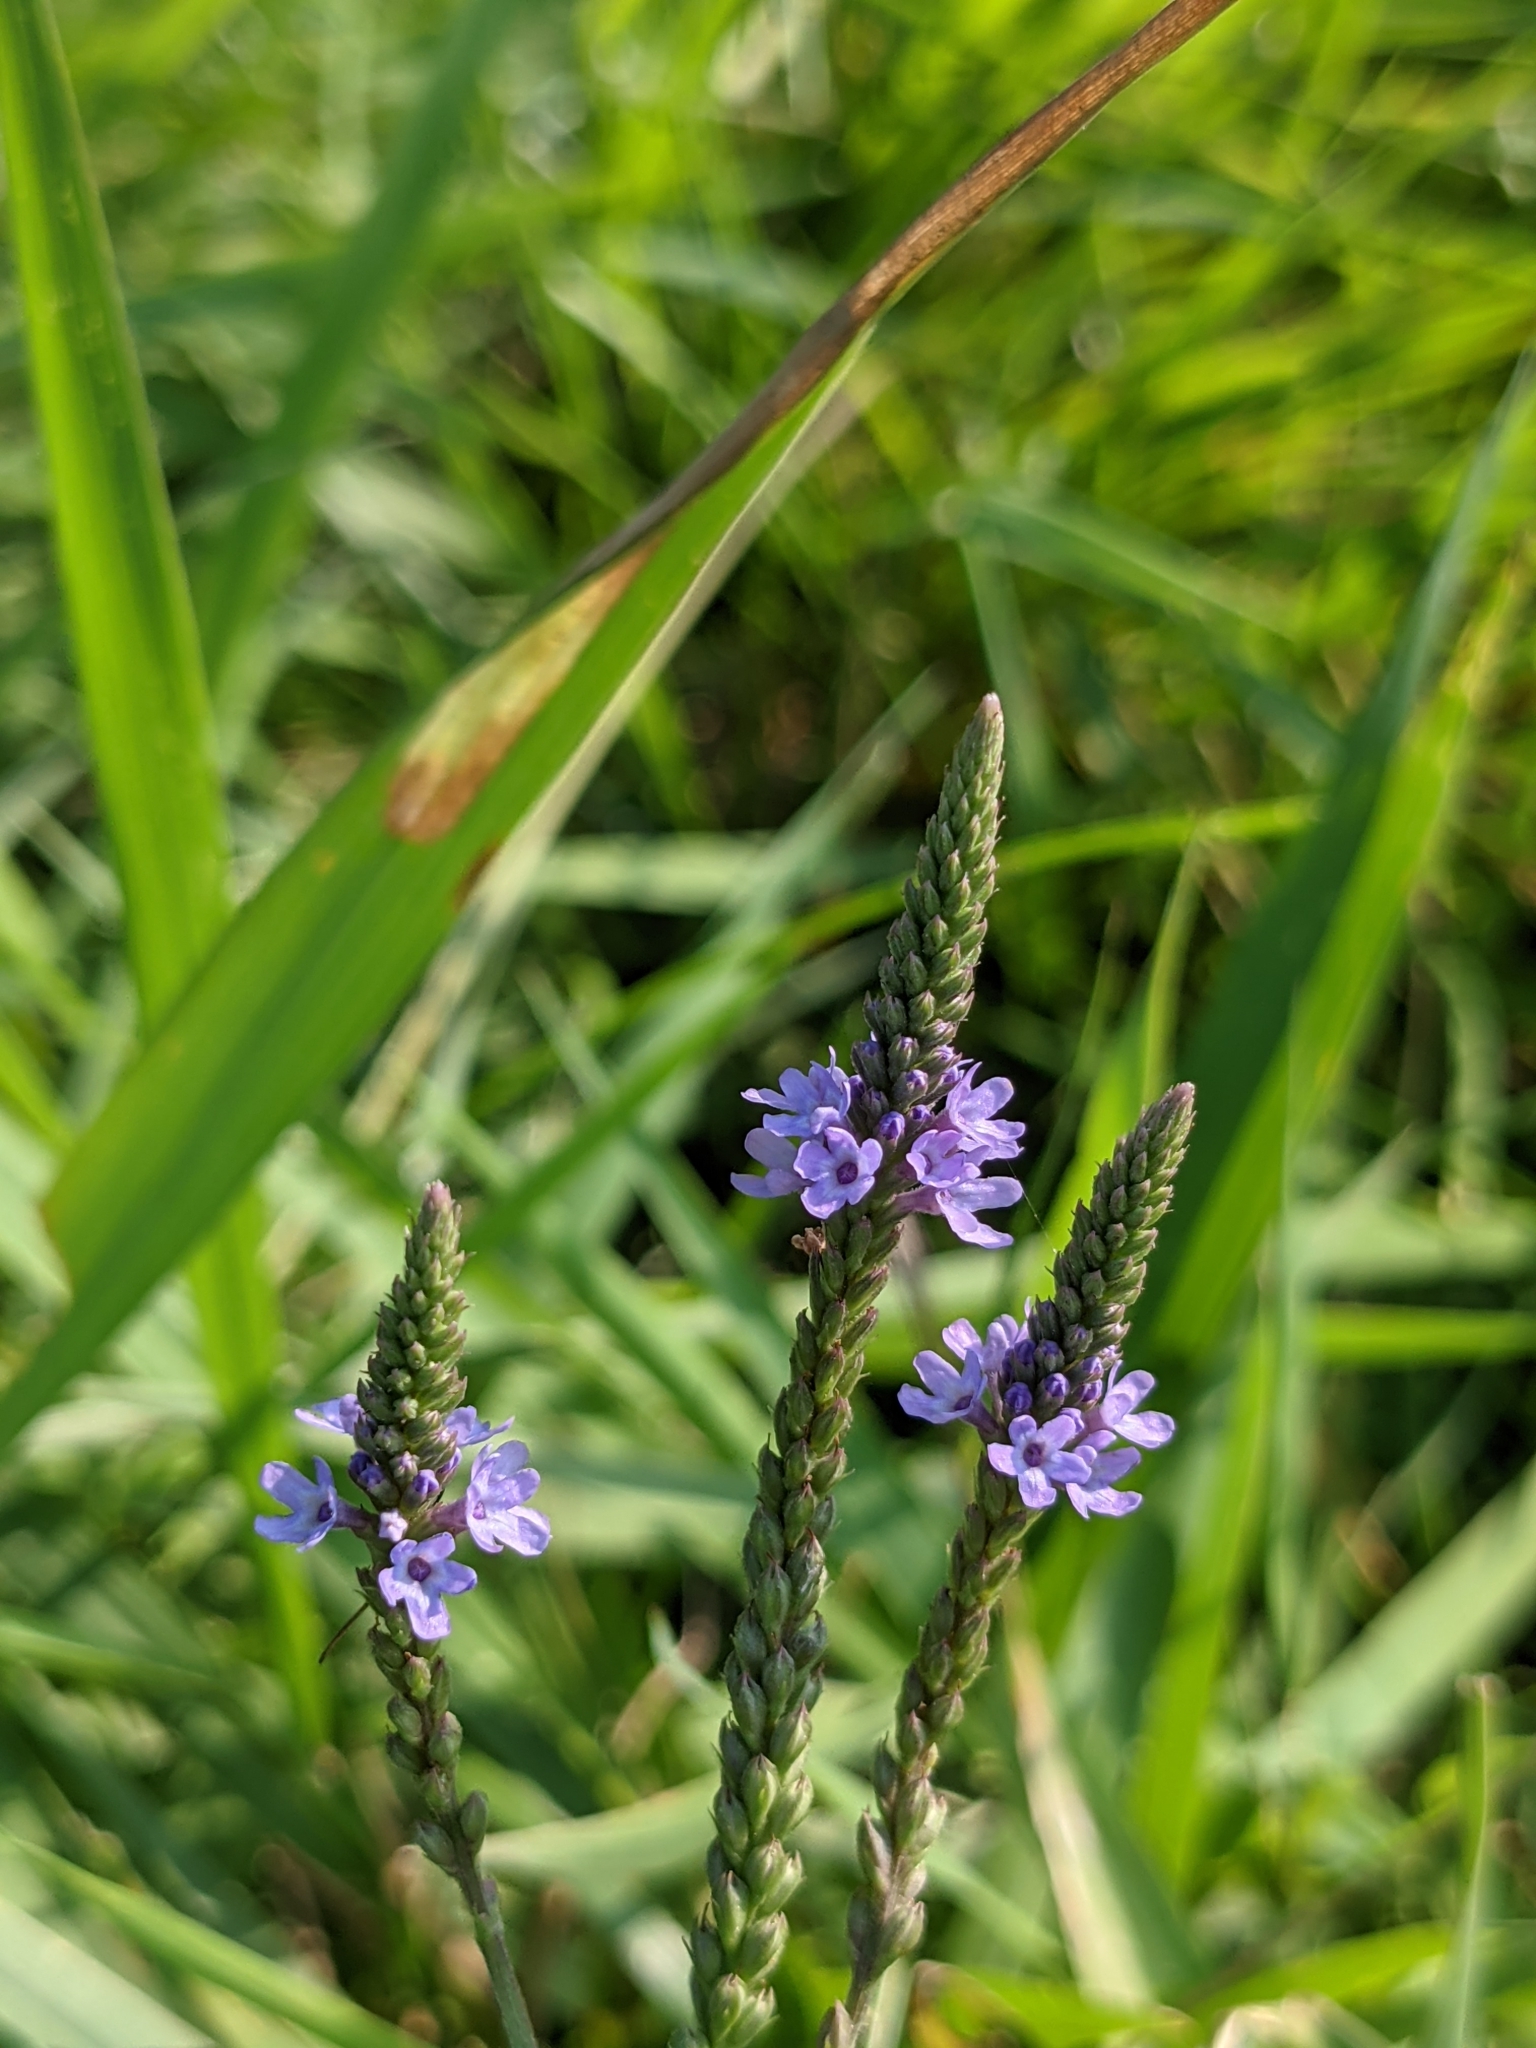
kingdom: Plantae
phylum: Tracheophyta
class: Magnoliopsida
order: Lamiales
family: Verbenaceae
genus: Verbena
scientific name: Verbena hastata
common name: American blue vervain
